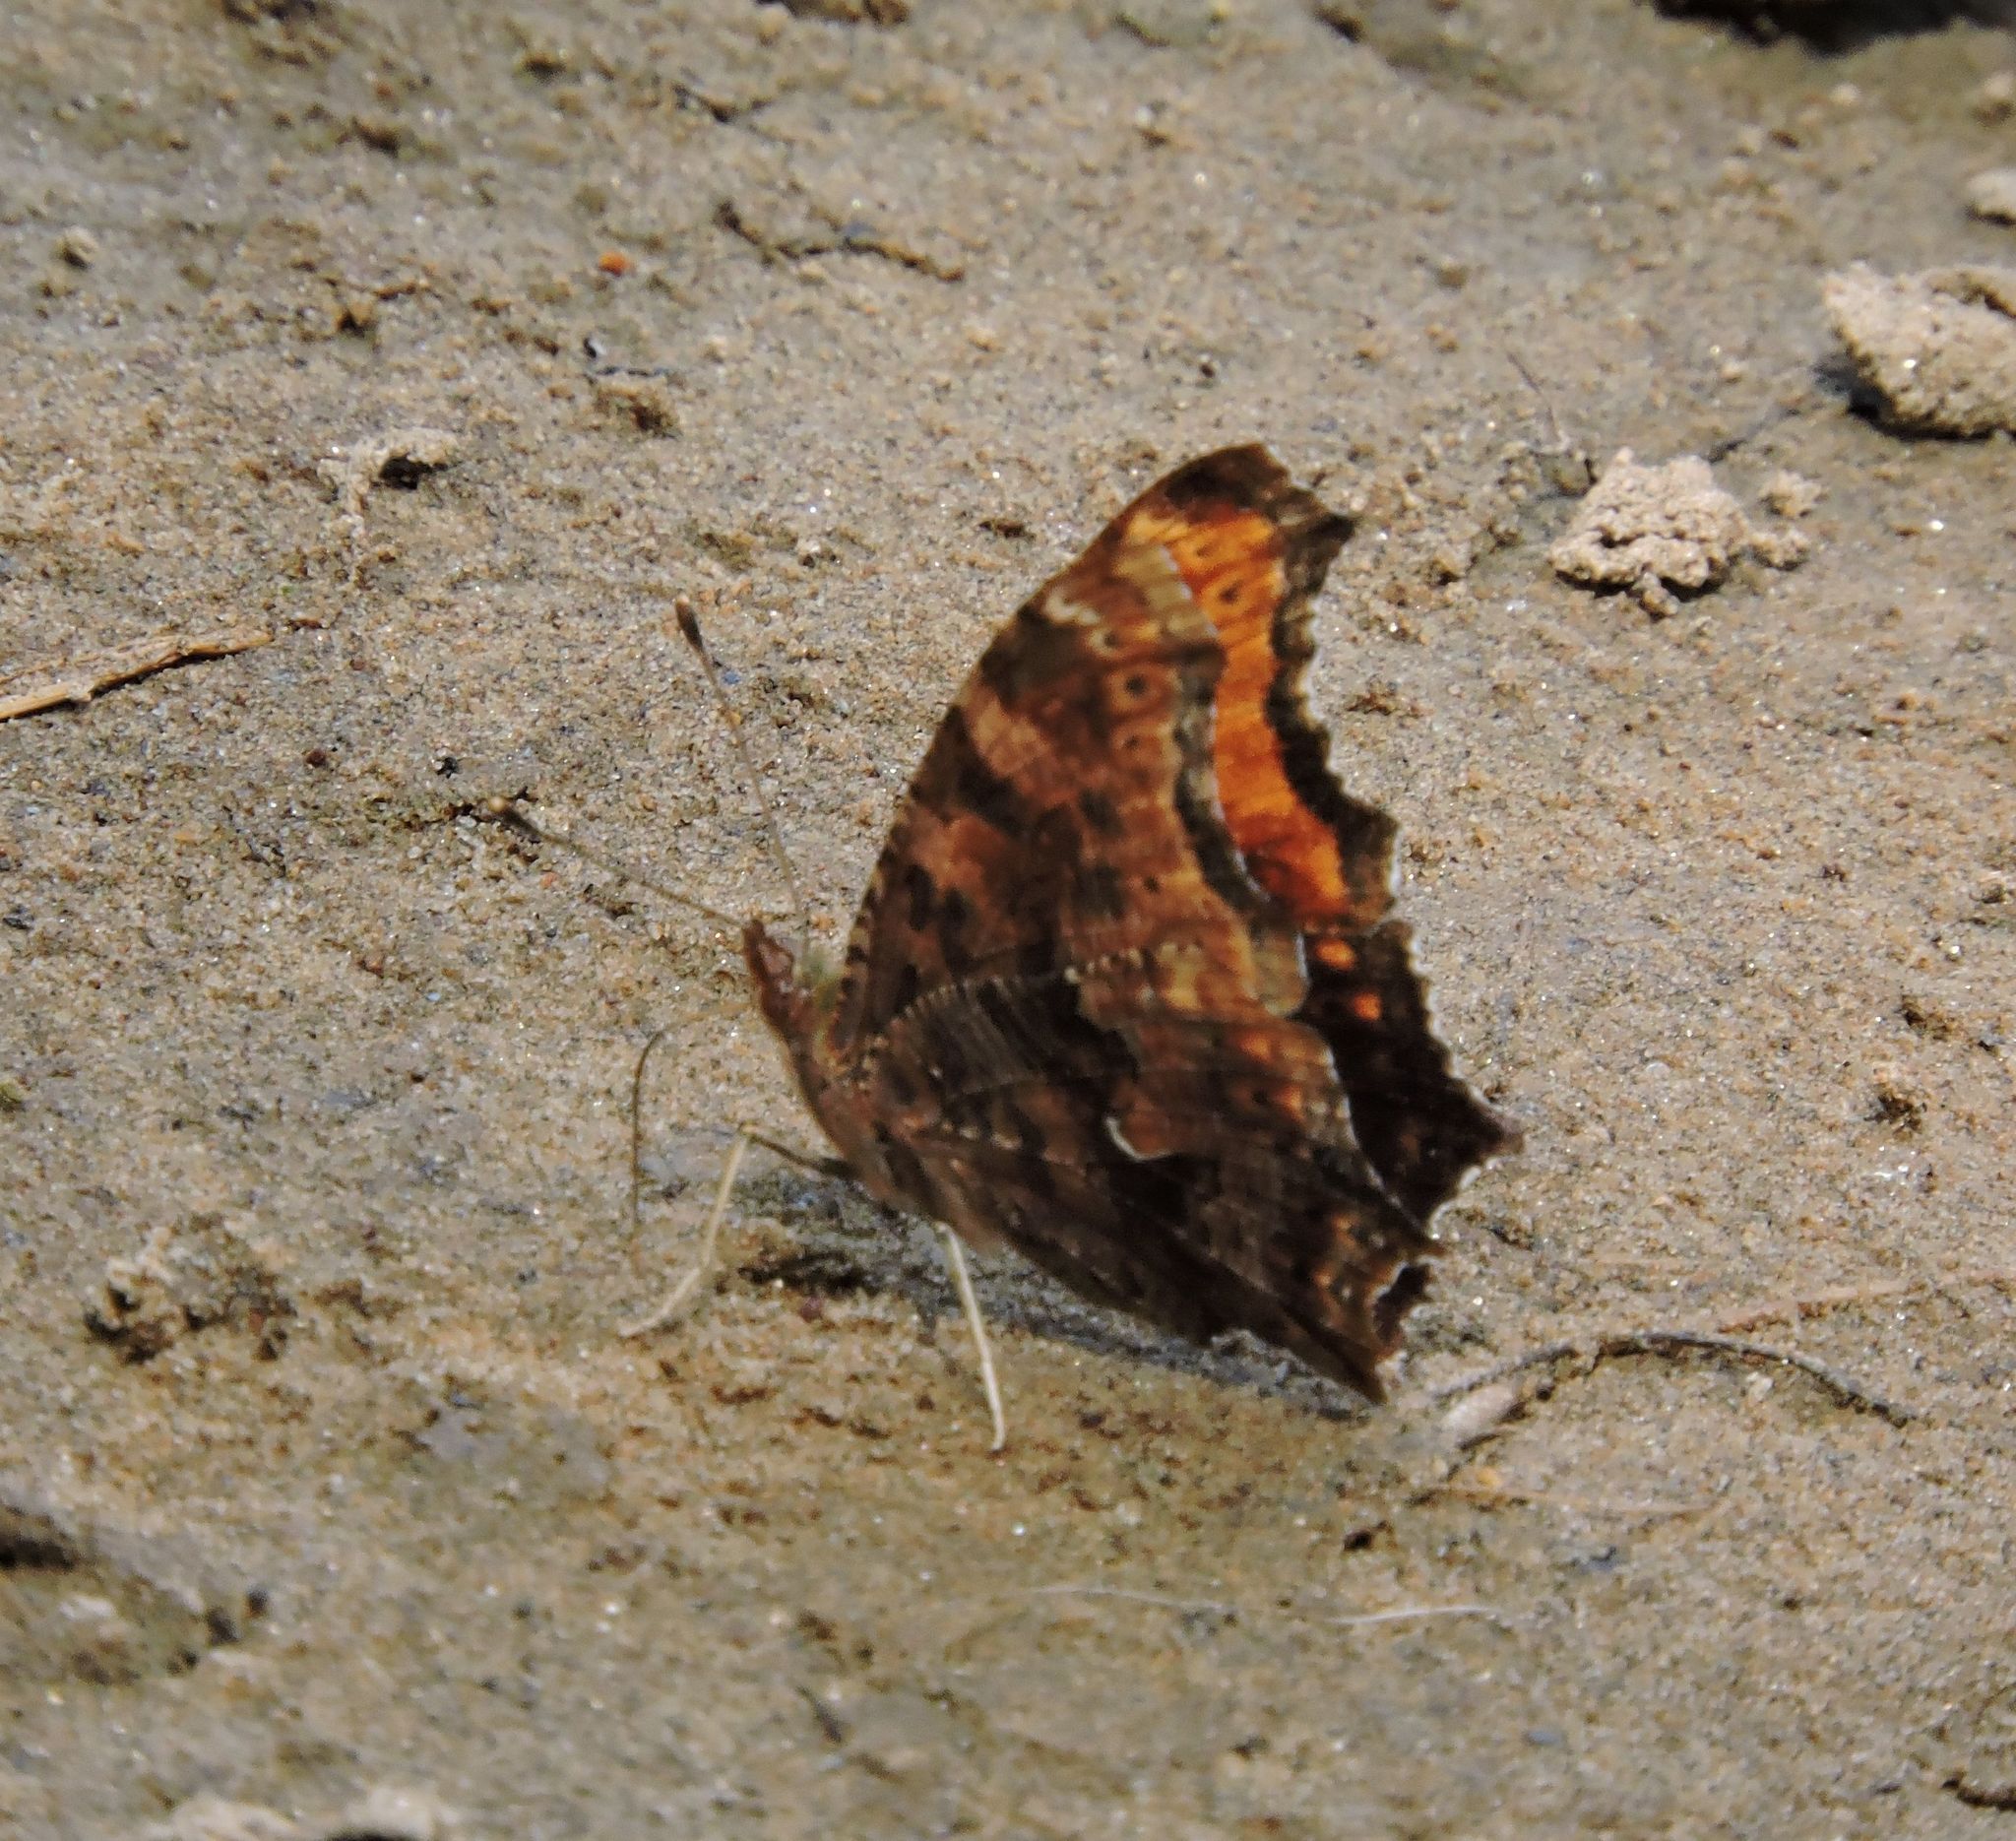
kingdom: Animalia
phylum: Arthropoda
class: Insecta
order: Lepidoptera
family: Nymphalidae
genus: Polygonia
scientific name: Polygonia comma
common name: Eastern comma
